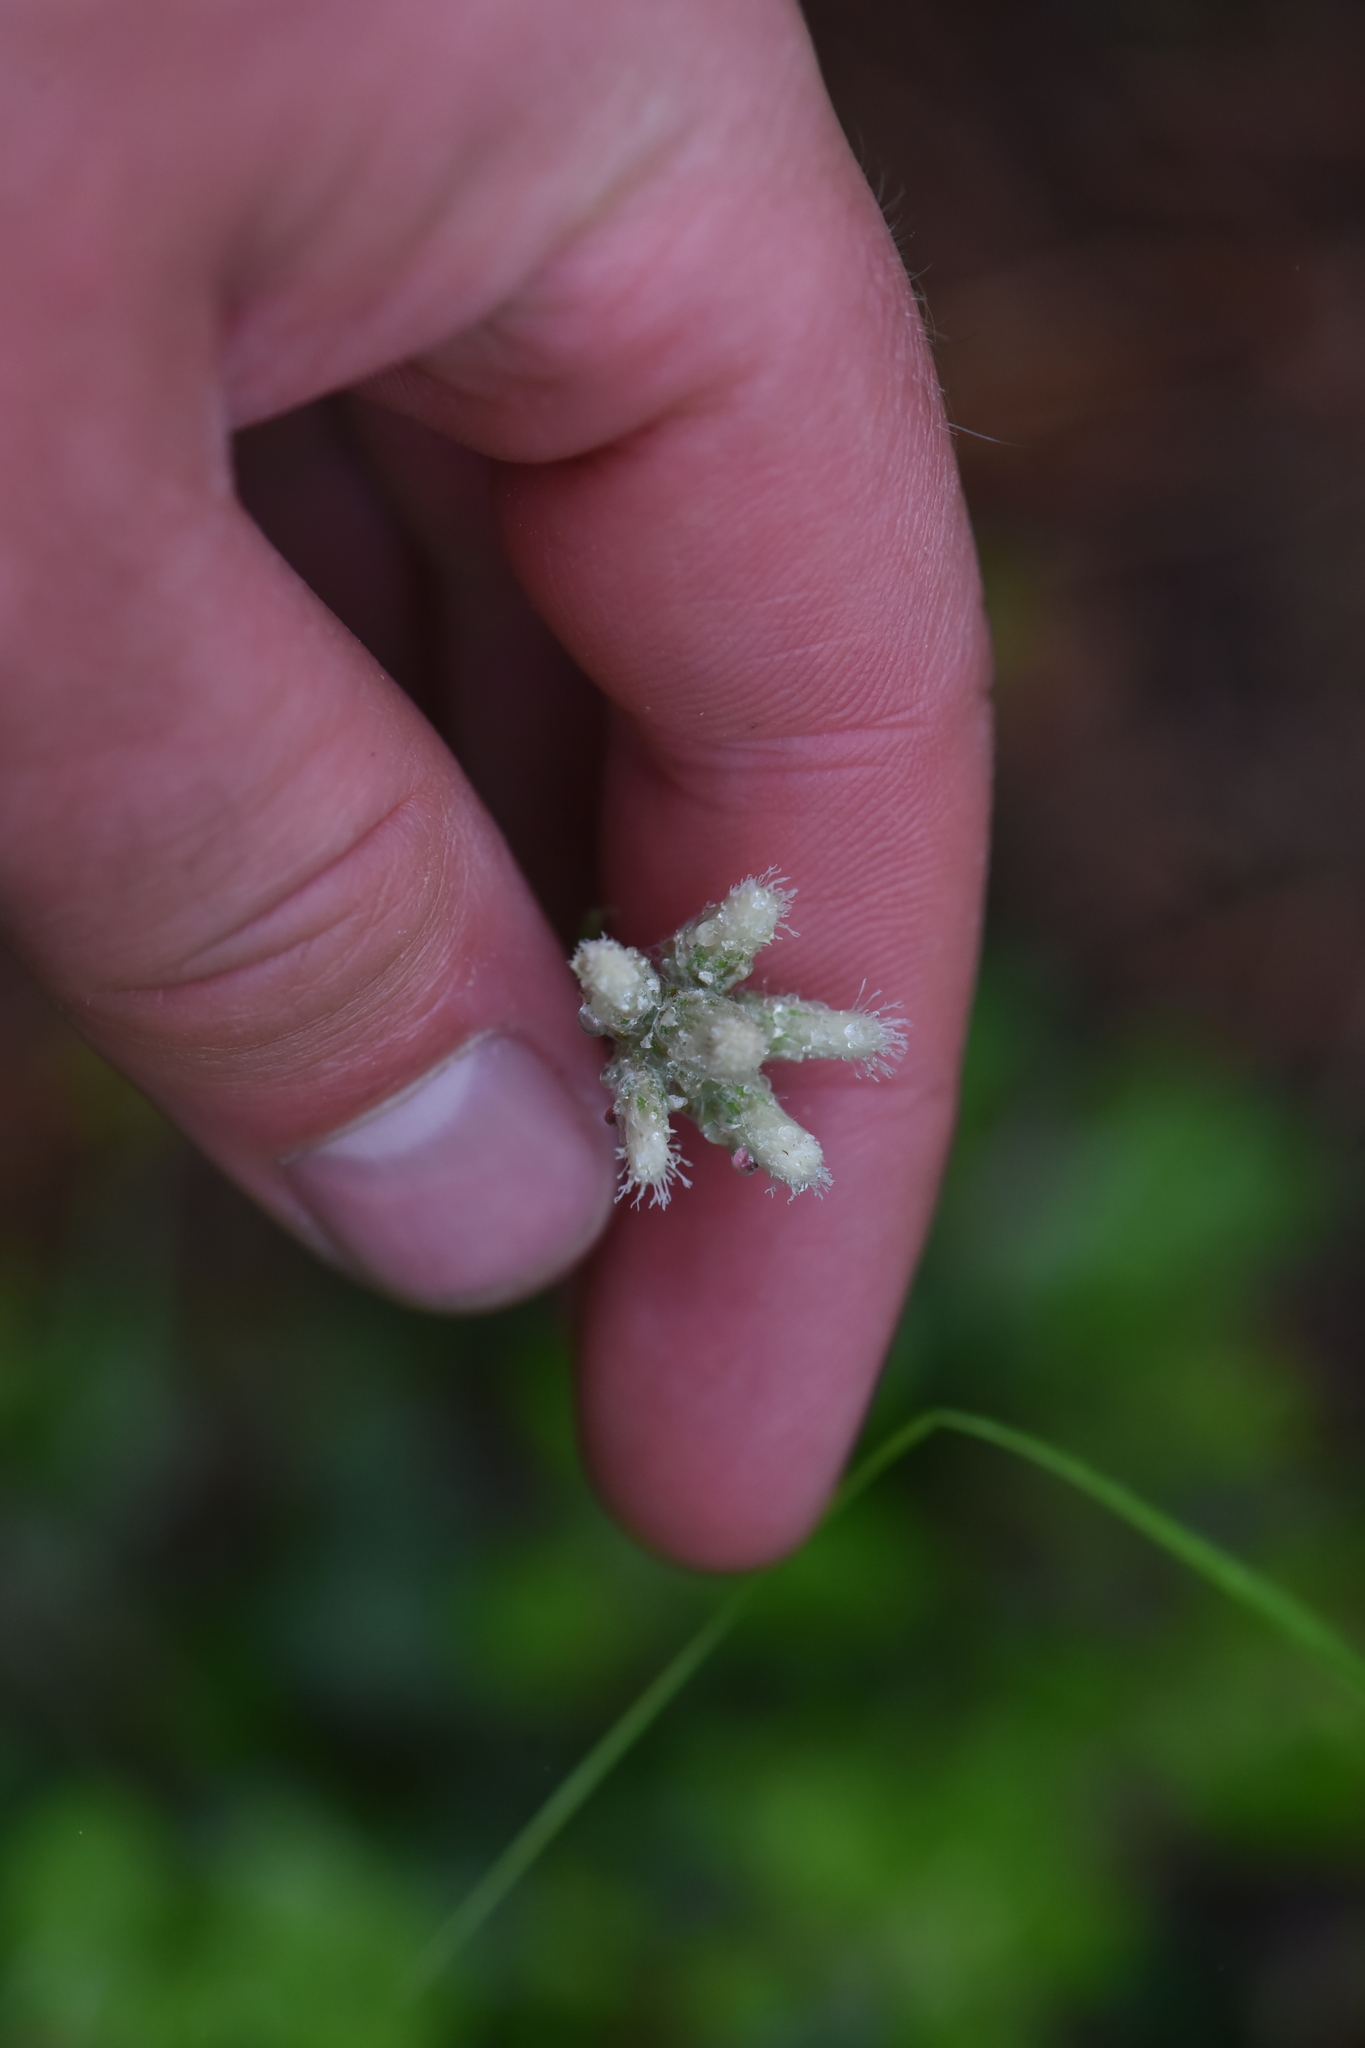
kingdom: Plantae
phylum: Tracheophyta
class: Magnoliopsida
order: Asterales
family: Asteraceae
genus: Antennaria
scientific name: Antennaria howellii
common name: Howell's pussytoes
